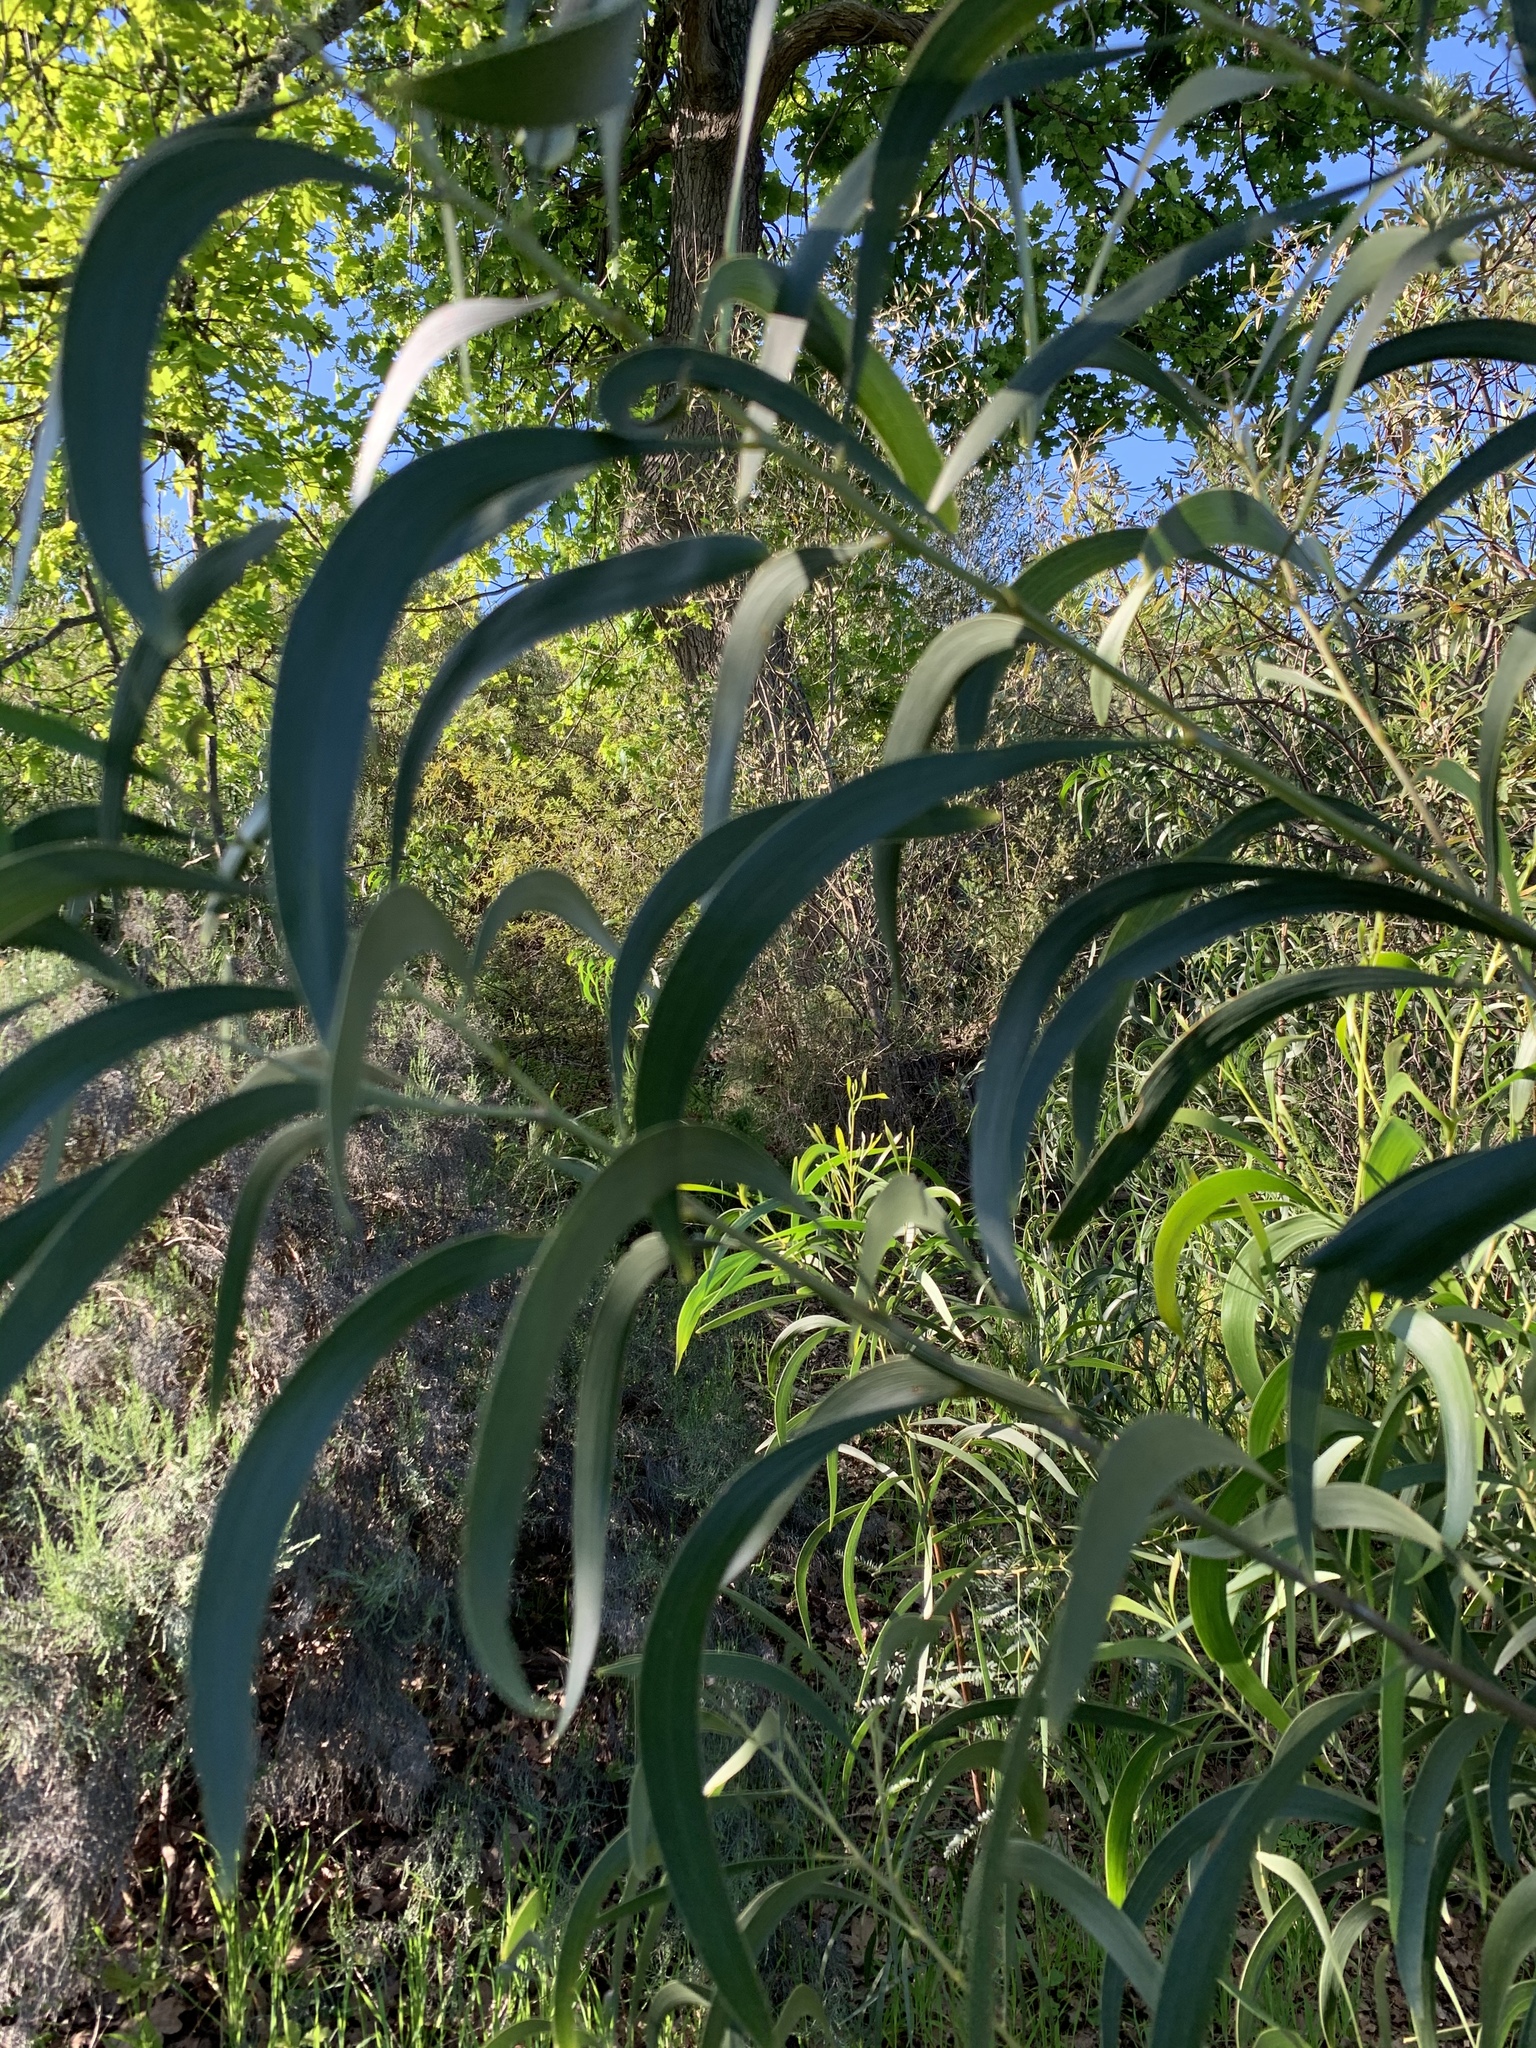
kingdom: Plantae
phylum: Tracheophyta
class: Magnoliopsida
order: Fabales
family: Fabaceae
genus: Acacia
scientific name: Acacia implexa
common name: Black wattle
